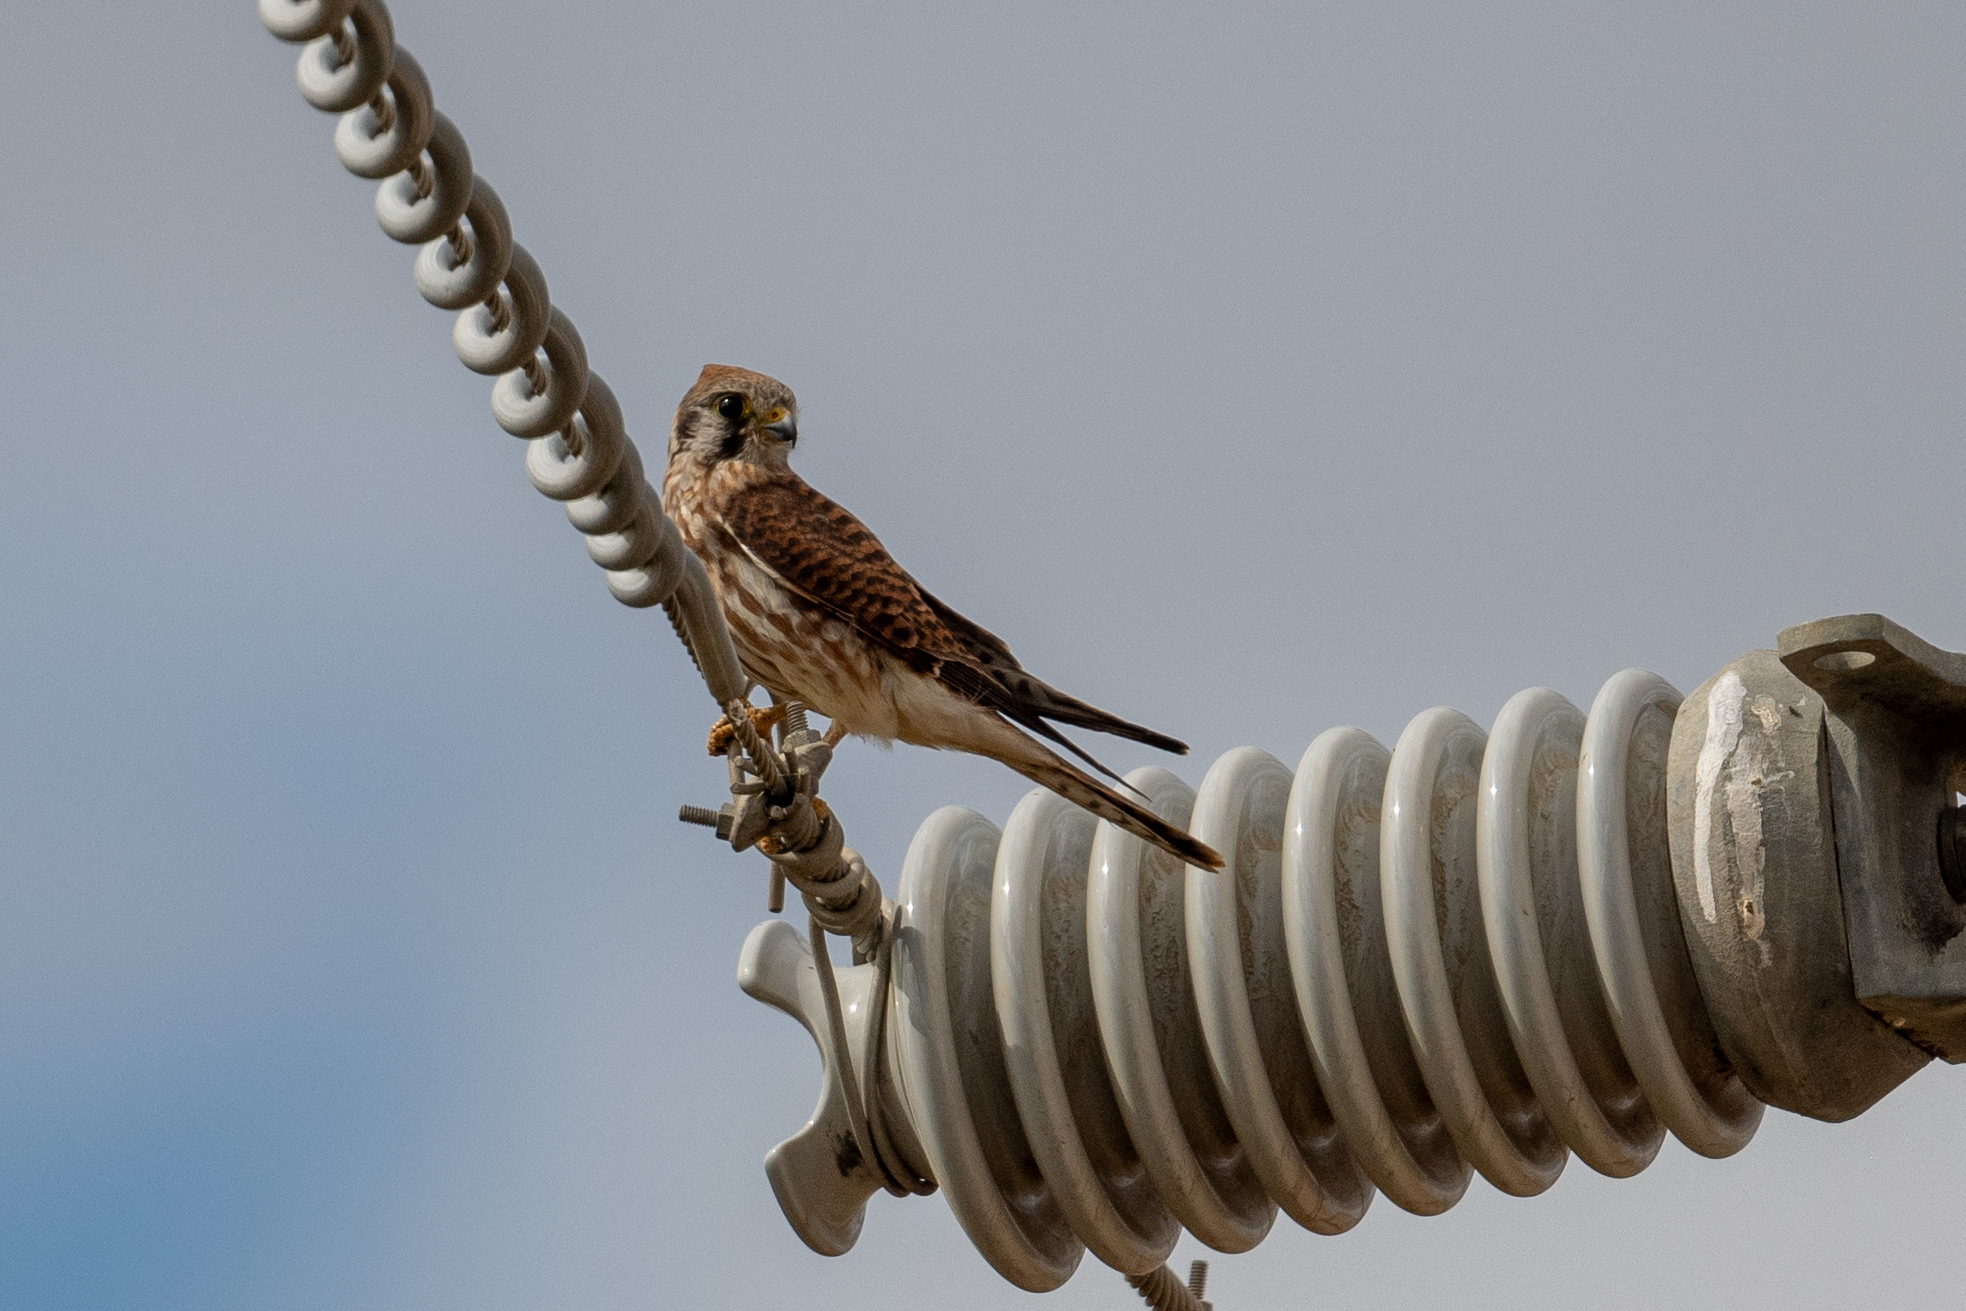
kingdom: Animalia
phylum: Chordata
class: Aves
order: Falconiformes
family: Falconidae
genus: Falco
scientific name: Falco sparverius
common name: American kestrel
